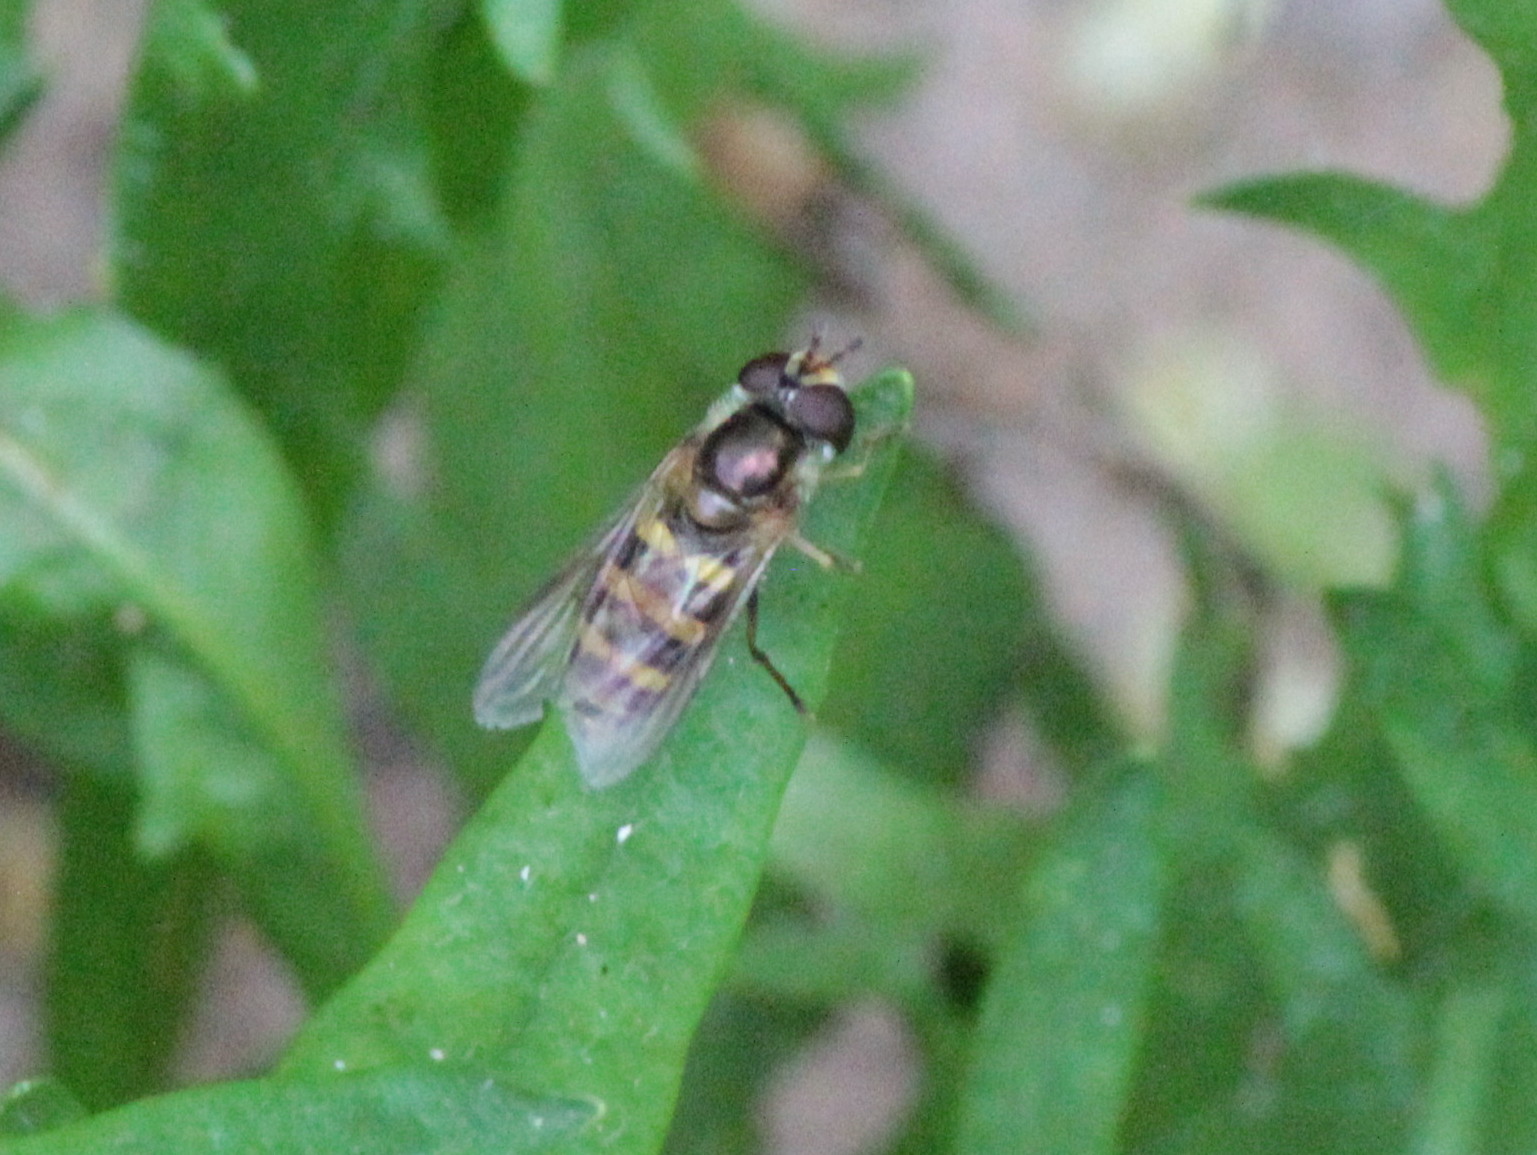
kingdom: Animalia
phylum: Arthropoda
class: Insecta
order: Diptera
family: Syrphidae
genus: Eupeodes
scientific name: Eupeodes
